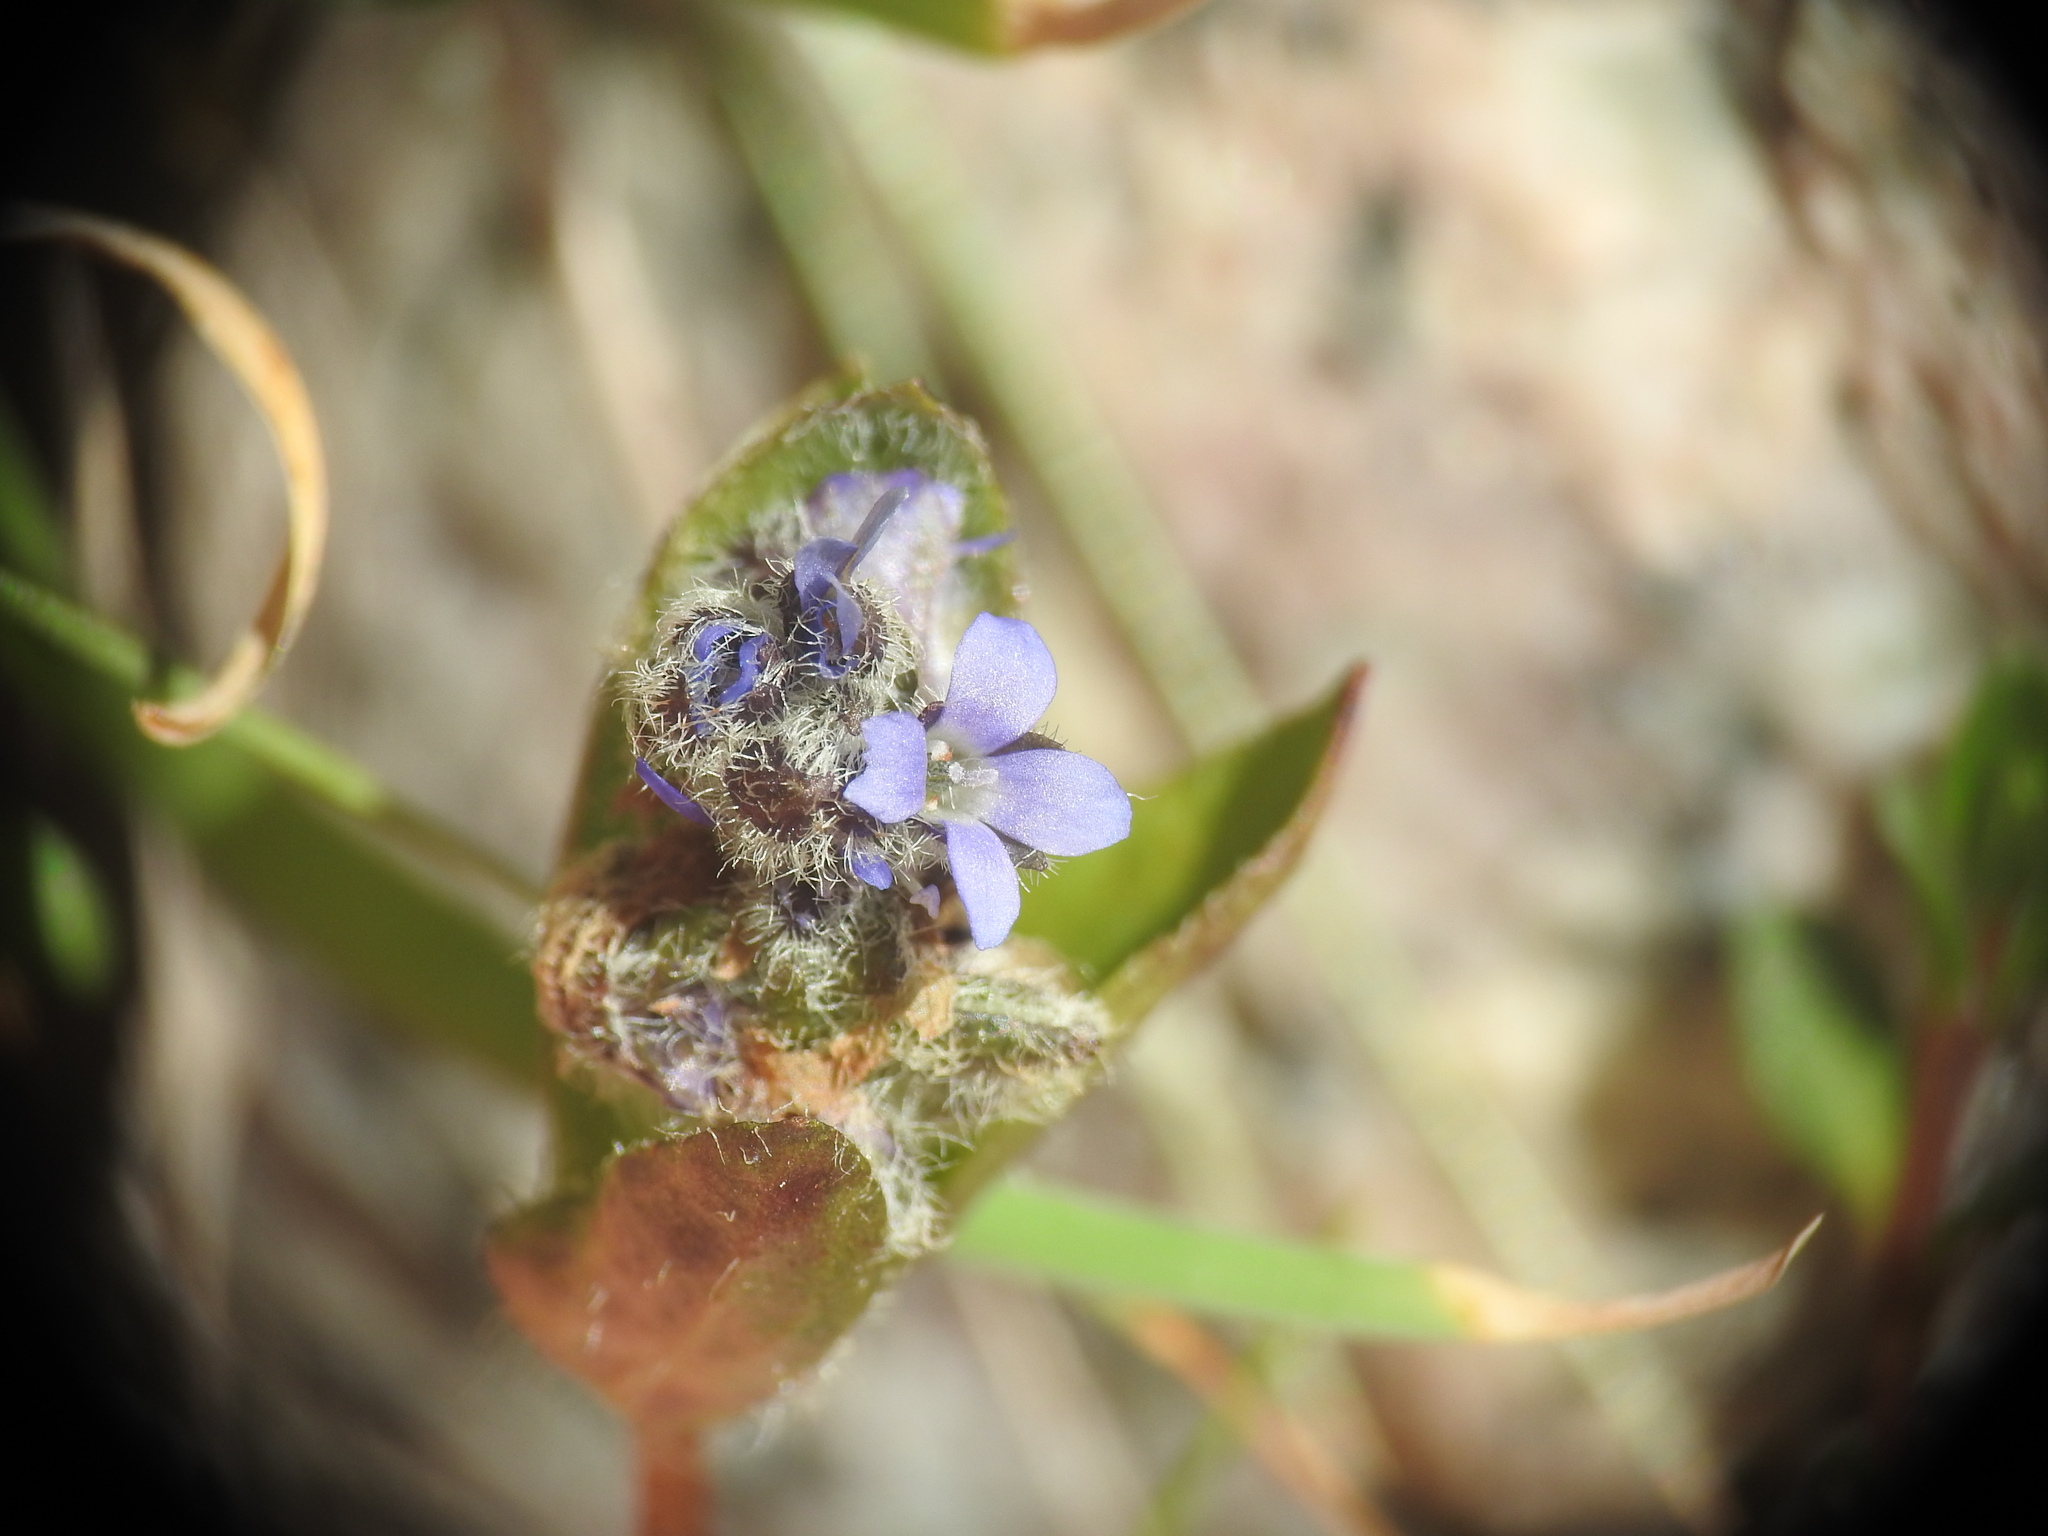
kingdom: Plantae
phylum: Tracheophyta
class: Magnoliopsida
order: Lamiales
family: Plantaginaceae
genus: Veronica
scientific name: Veronica alpina
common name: Alpine speedwell
